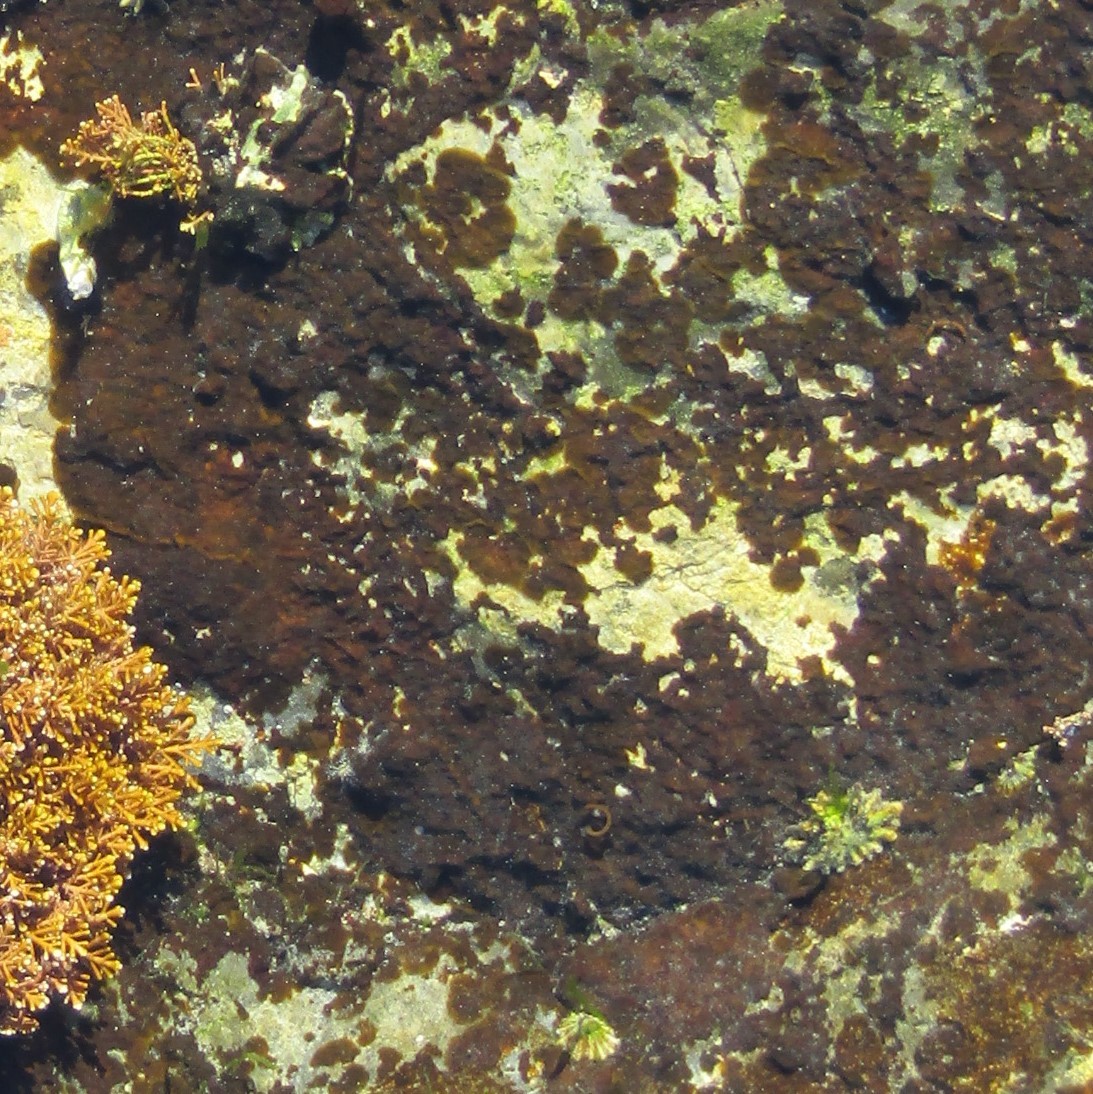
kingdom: Animalia
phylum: Mollusca
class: Gastropoda
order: Siphonariida
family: Siphonariidae
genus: Siphonaria
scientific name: Siphonaria australis
